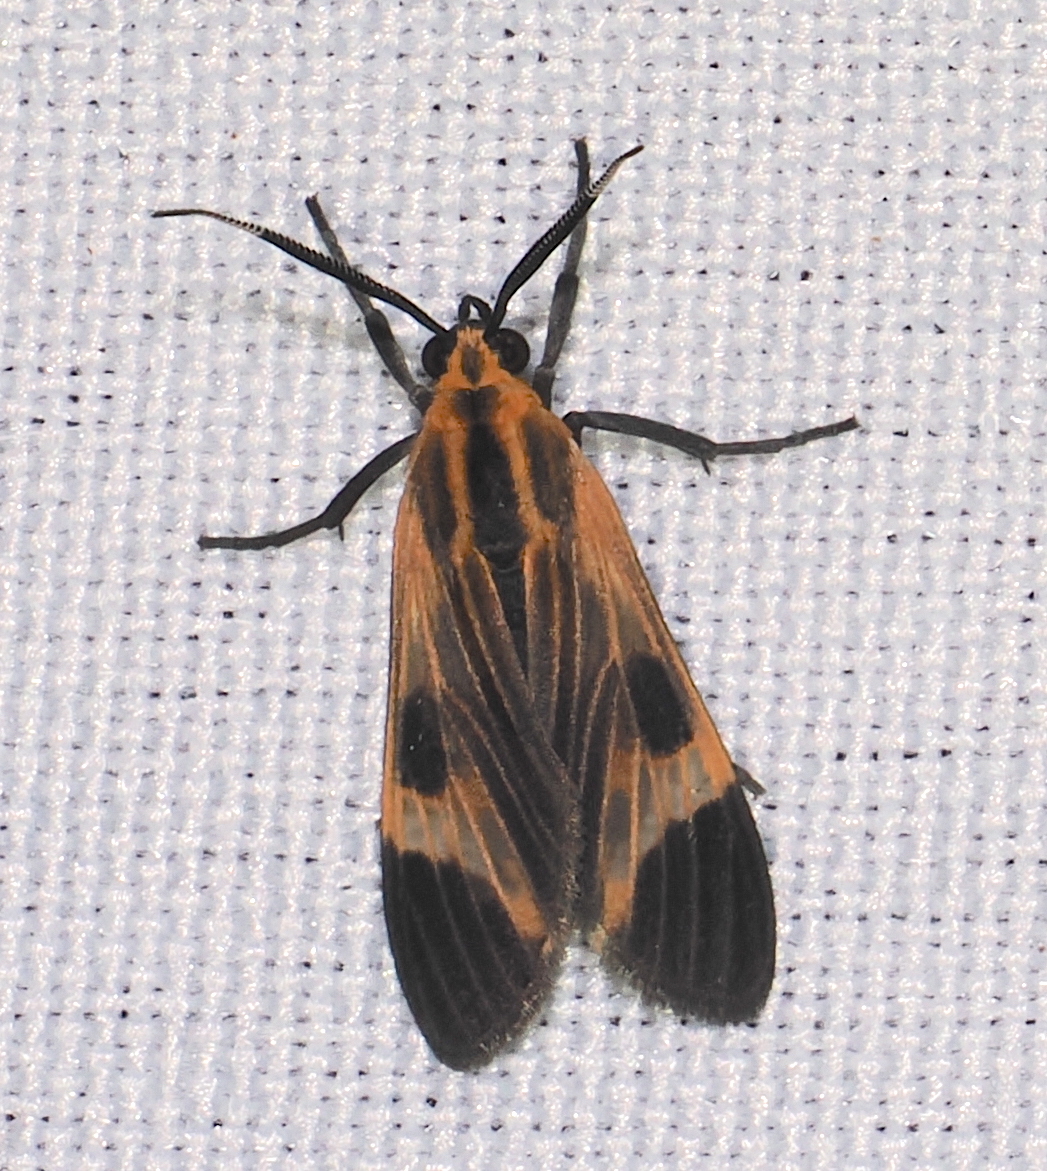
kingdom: Animalia
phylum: Arthropoda
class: Insecta
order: Lepidoptera
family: Erebidae
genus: Dycladia
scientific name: Dycladia lucetius
